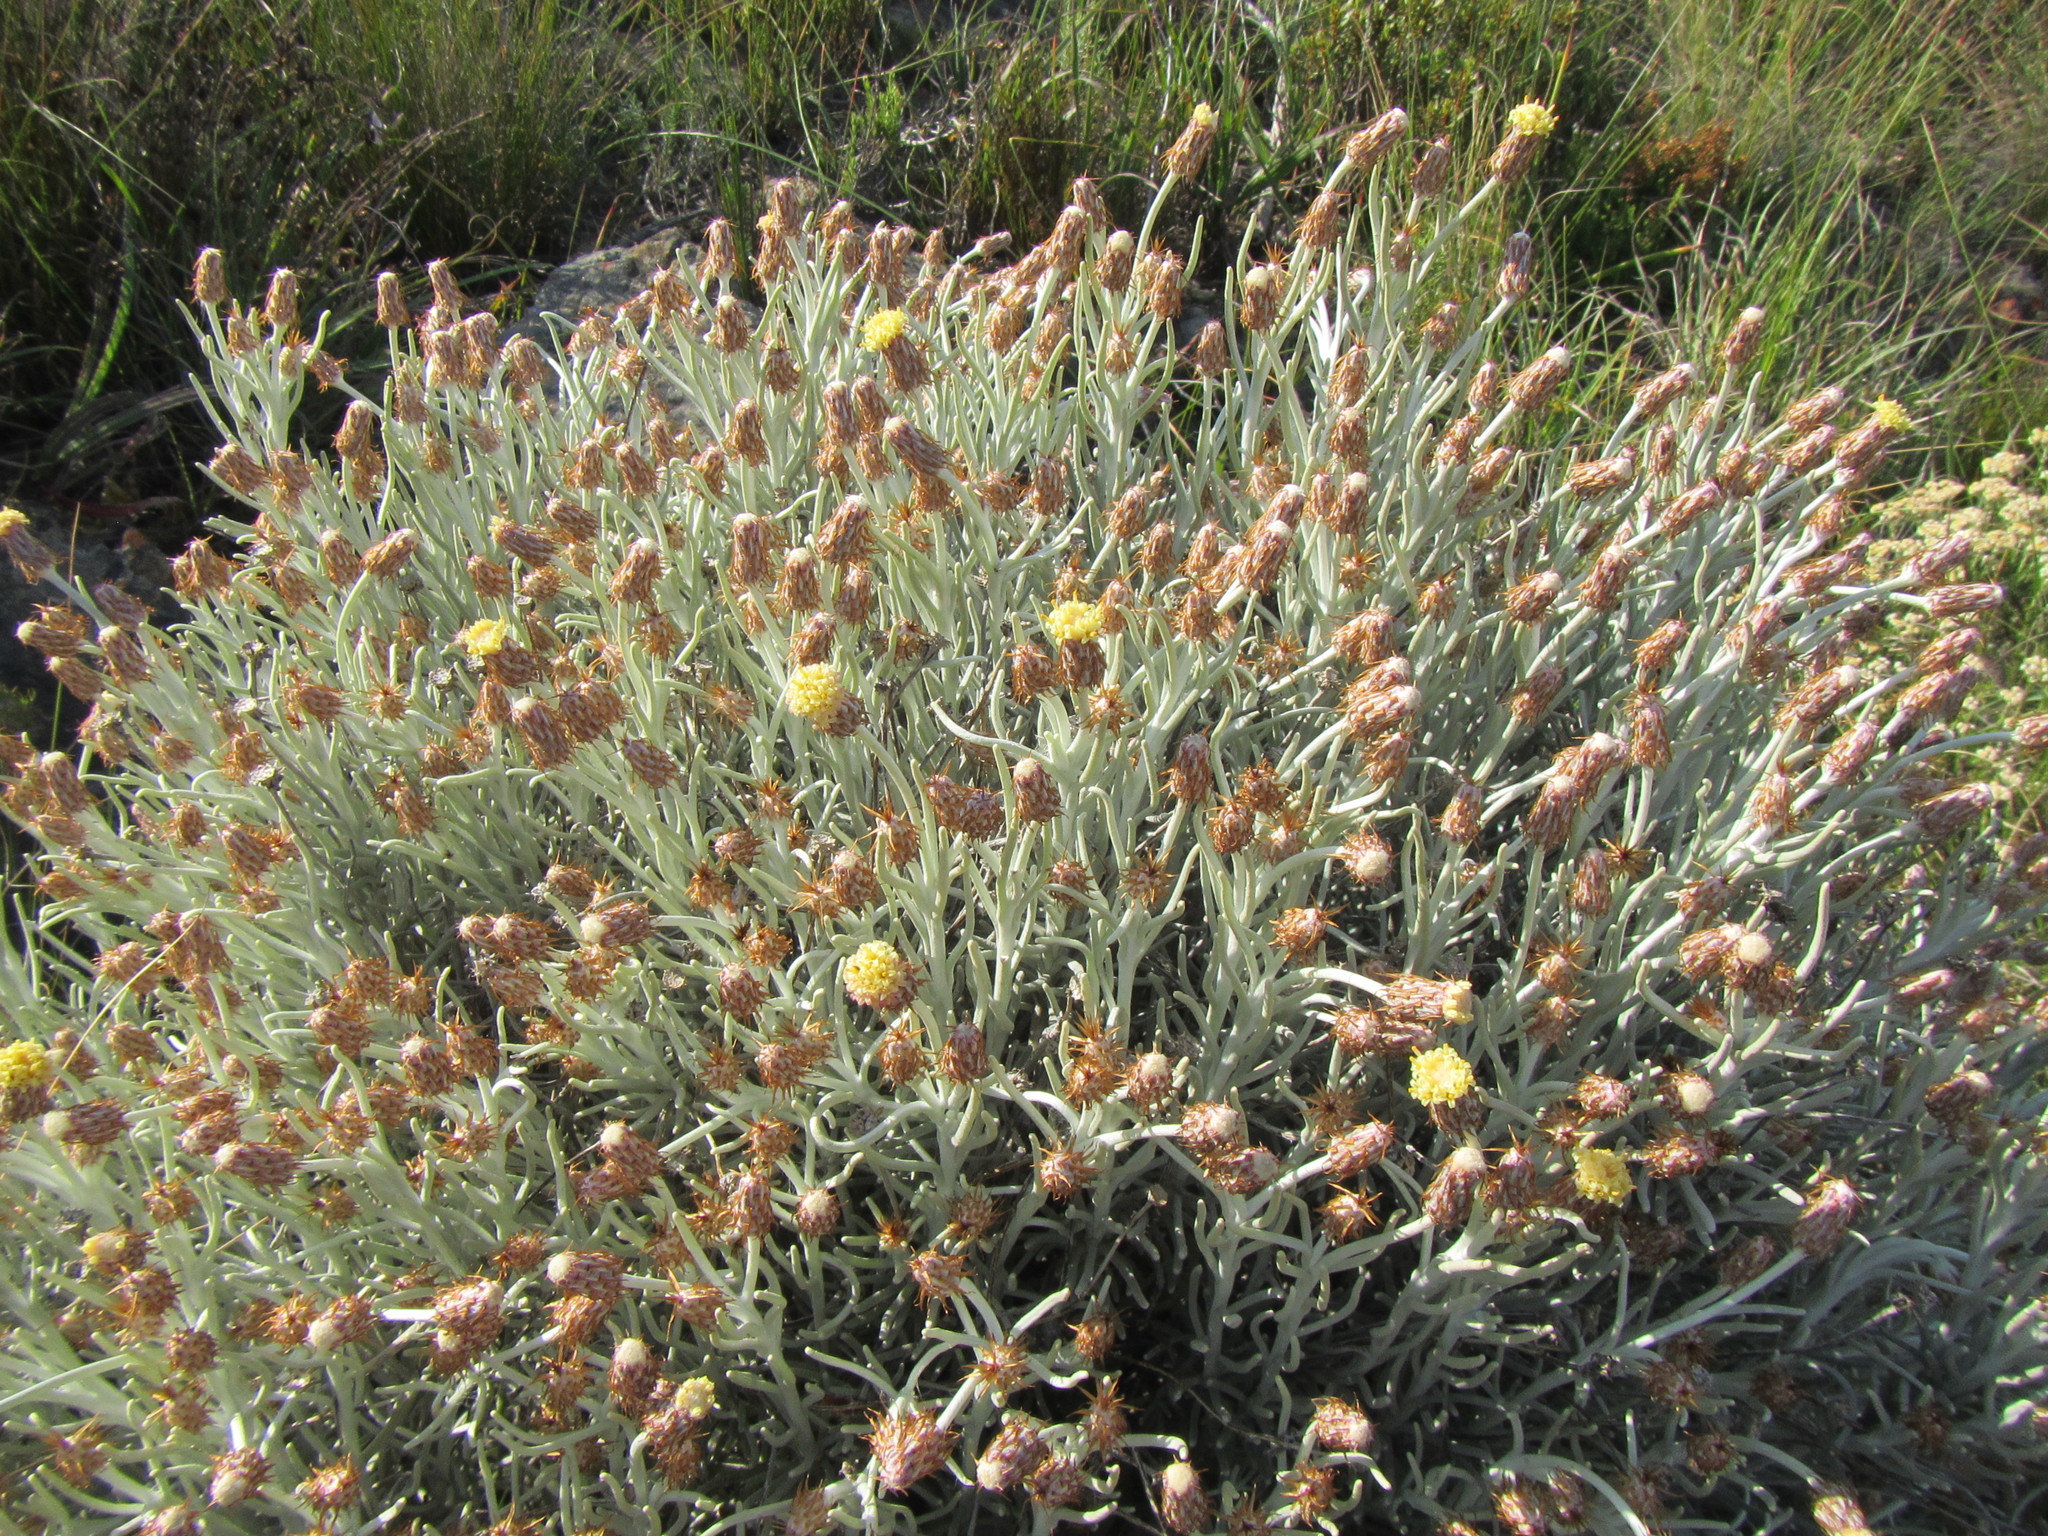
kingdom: Plantae
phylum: Tracheophyta
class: Magnoliopsida
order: Asterales
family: Asteraceae
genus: Syncarpha
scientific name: Syncarpha gnaphaloides
